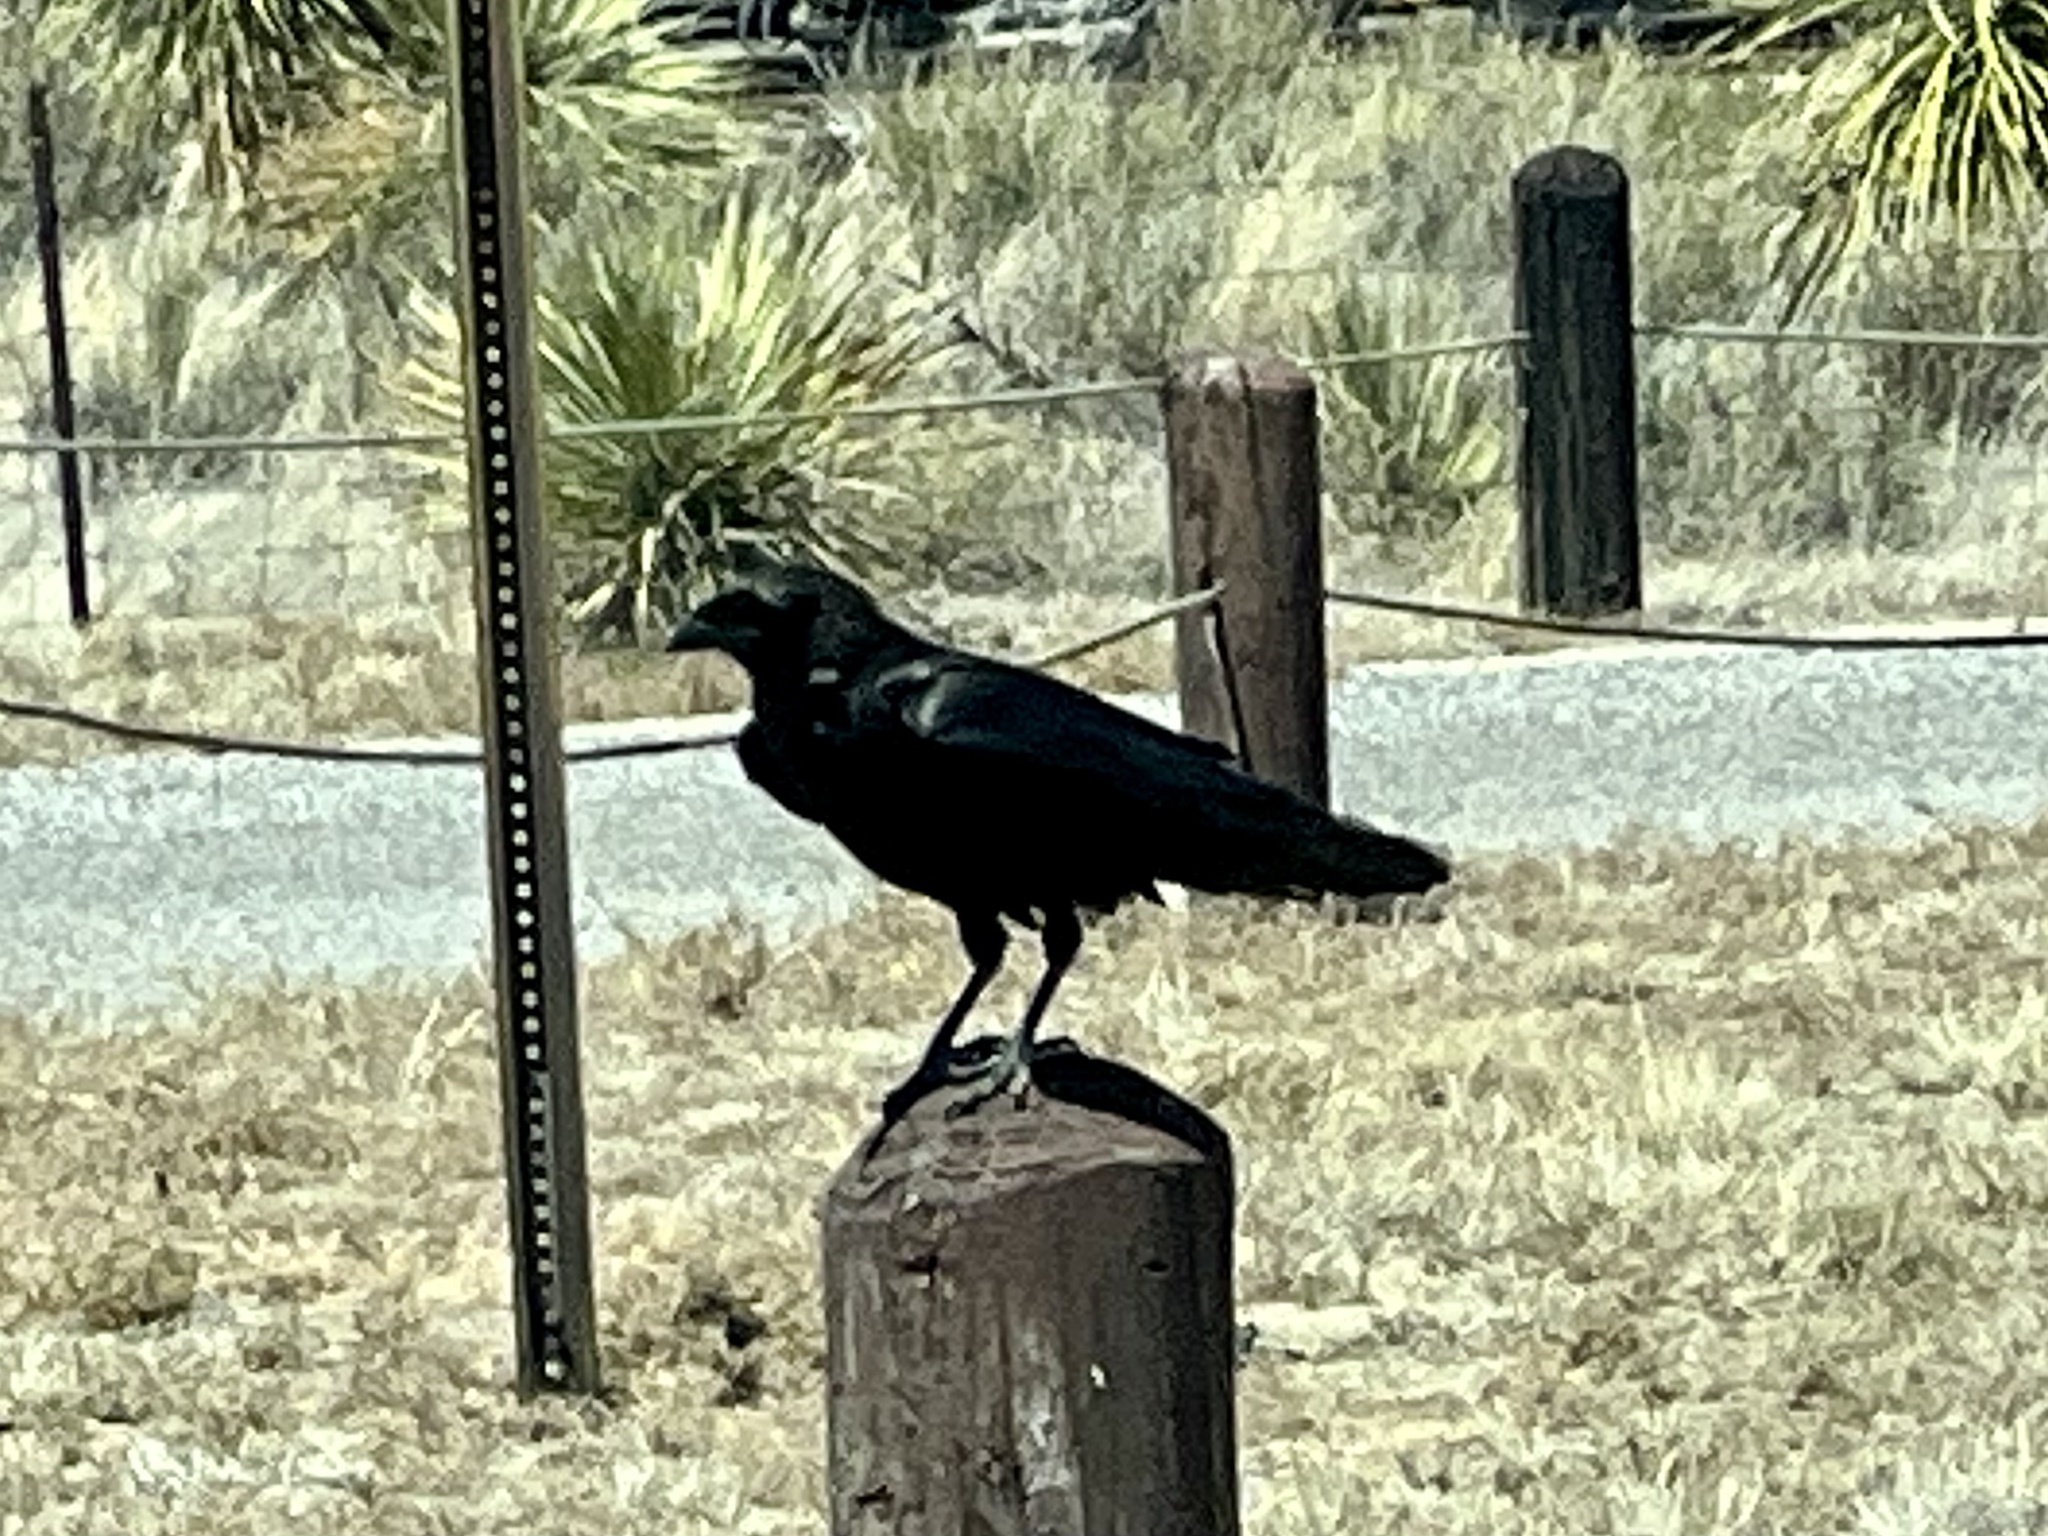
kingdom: Animalia
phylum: Chordata
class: Aves
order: Passeriformes
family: Corvidae
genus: Corvus
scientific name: Corvus cryptoleucus
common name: Chihuahuan raven
